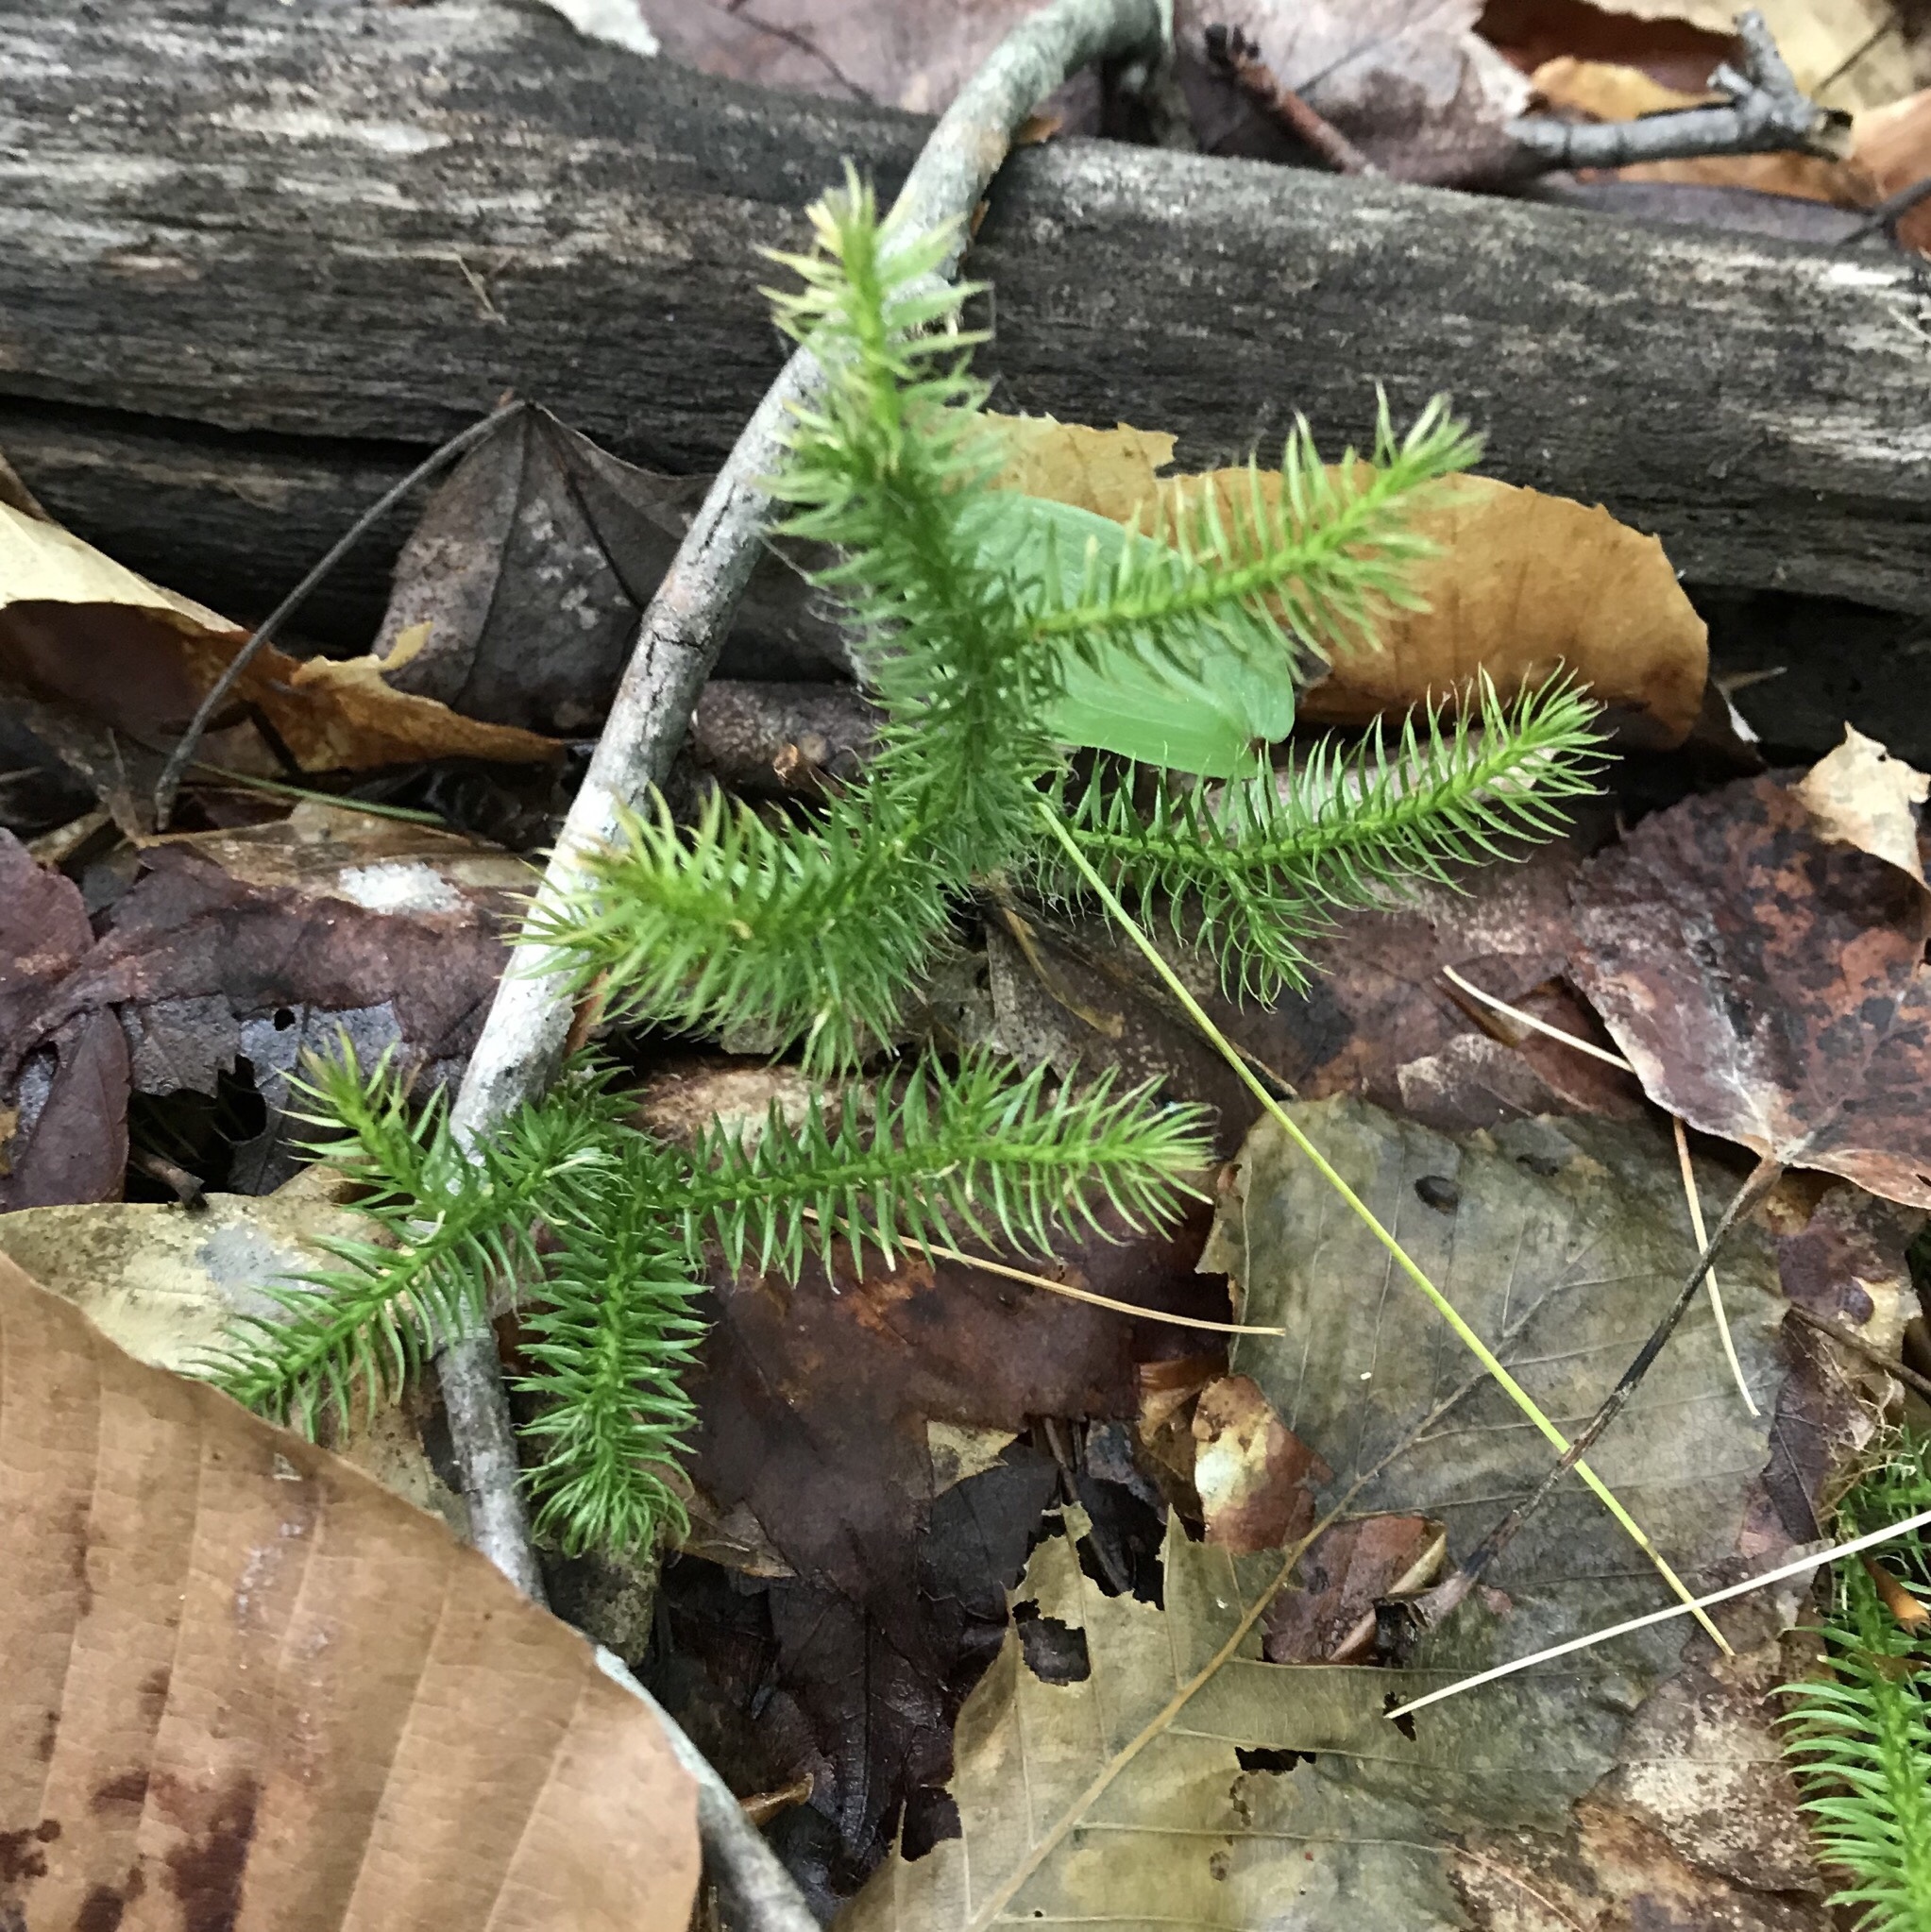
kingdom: Plantae
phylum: Tracheophyta
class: Lycopodiopsida
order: Lycopodiales
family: Lycopodiaceae
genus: Lycopodium
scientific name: Lycopodium clavatum
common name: Stag's-horn clubmoss
